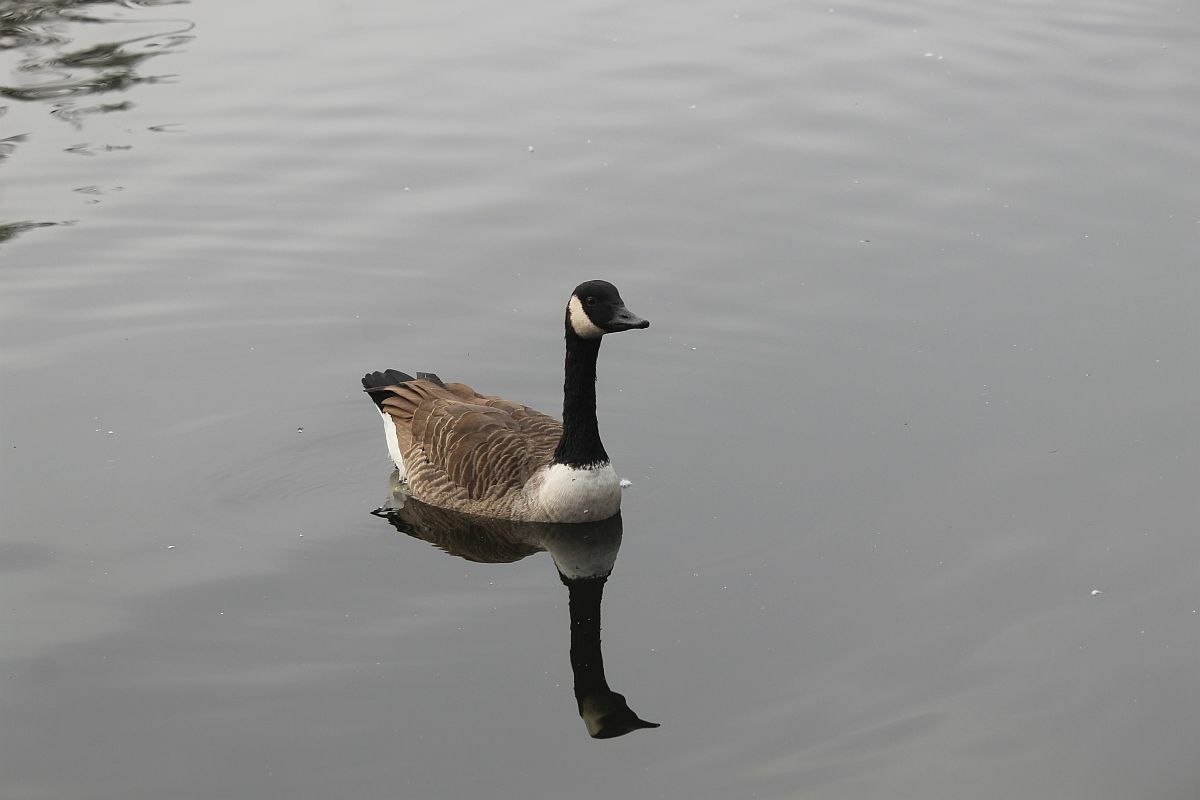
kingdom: Animalia
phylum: Chordata
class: Aves
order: Anseriformes
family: Anatidae
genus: Branta
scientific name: Branta canadensis
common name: Canada goose
